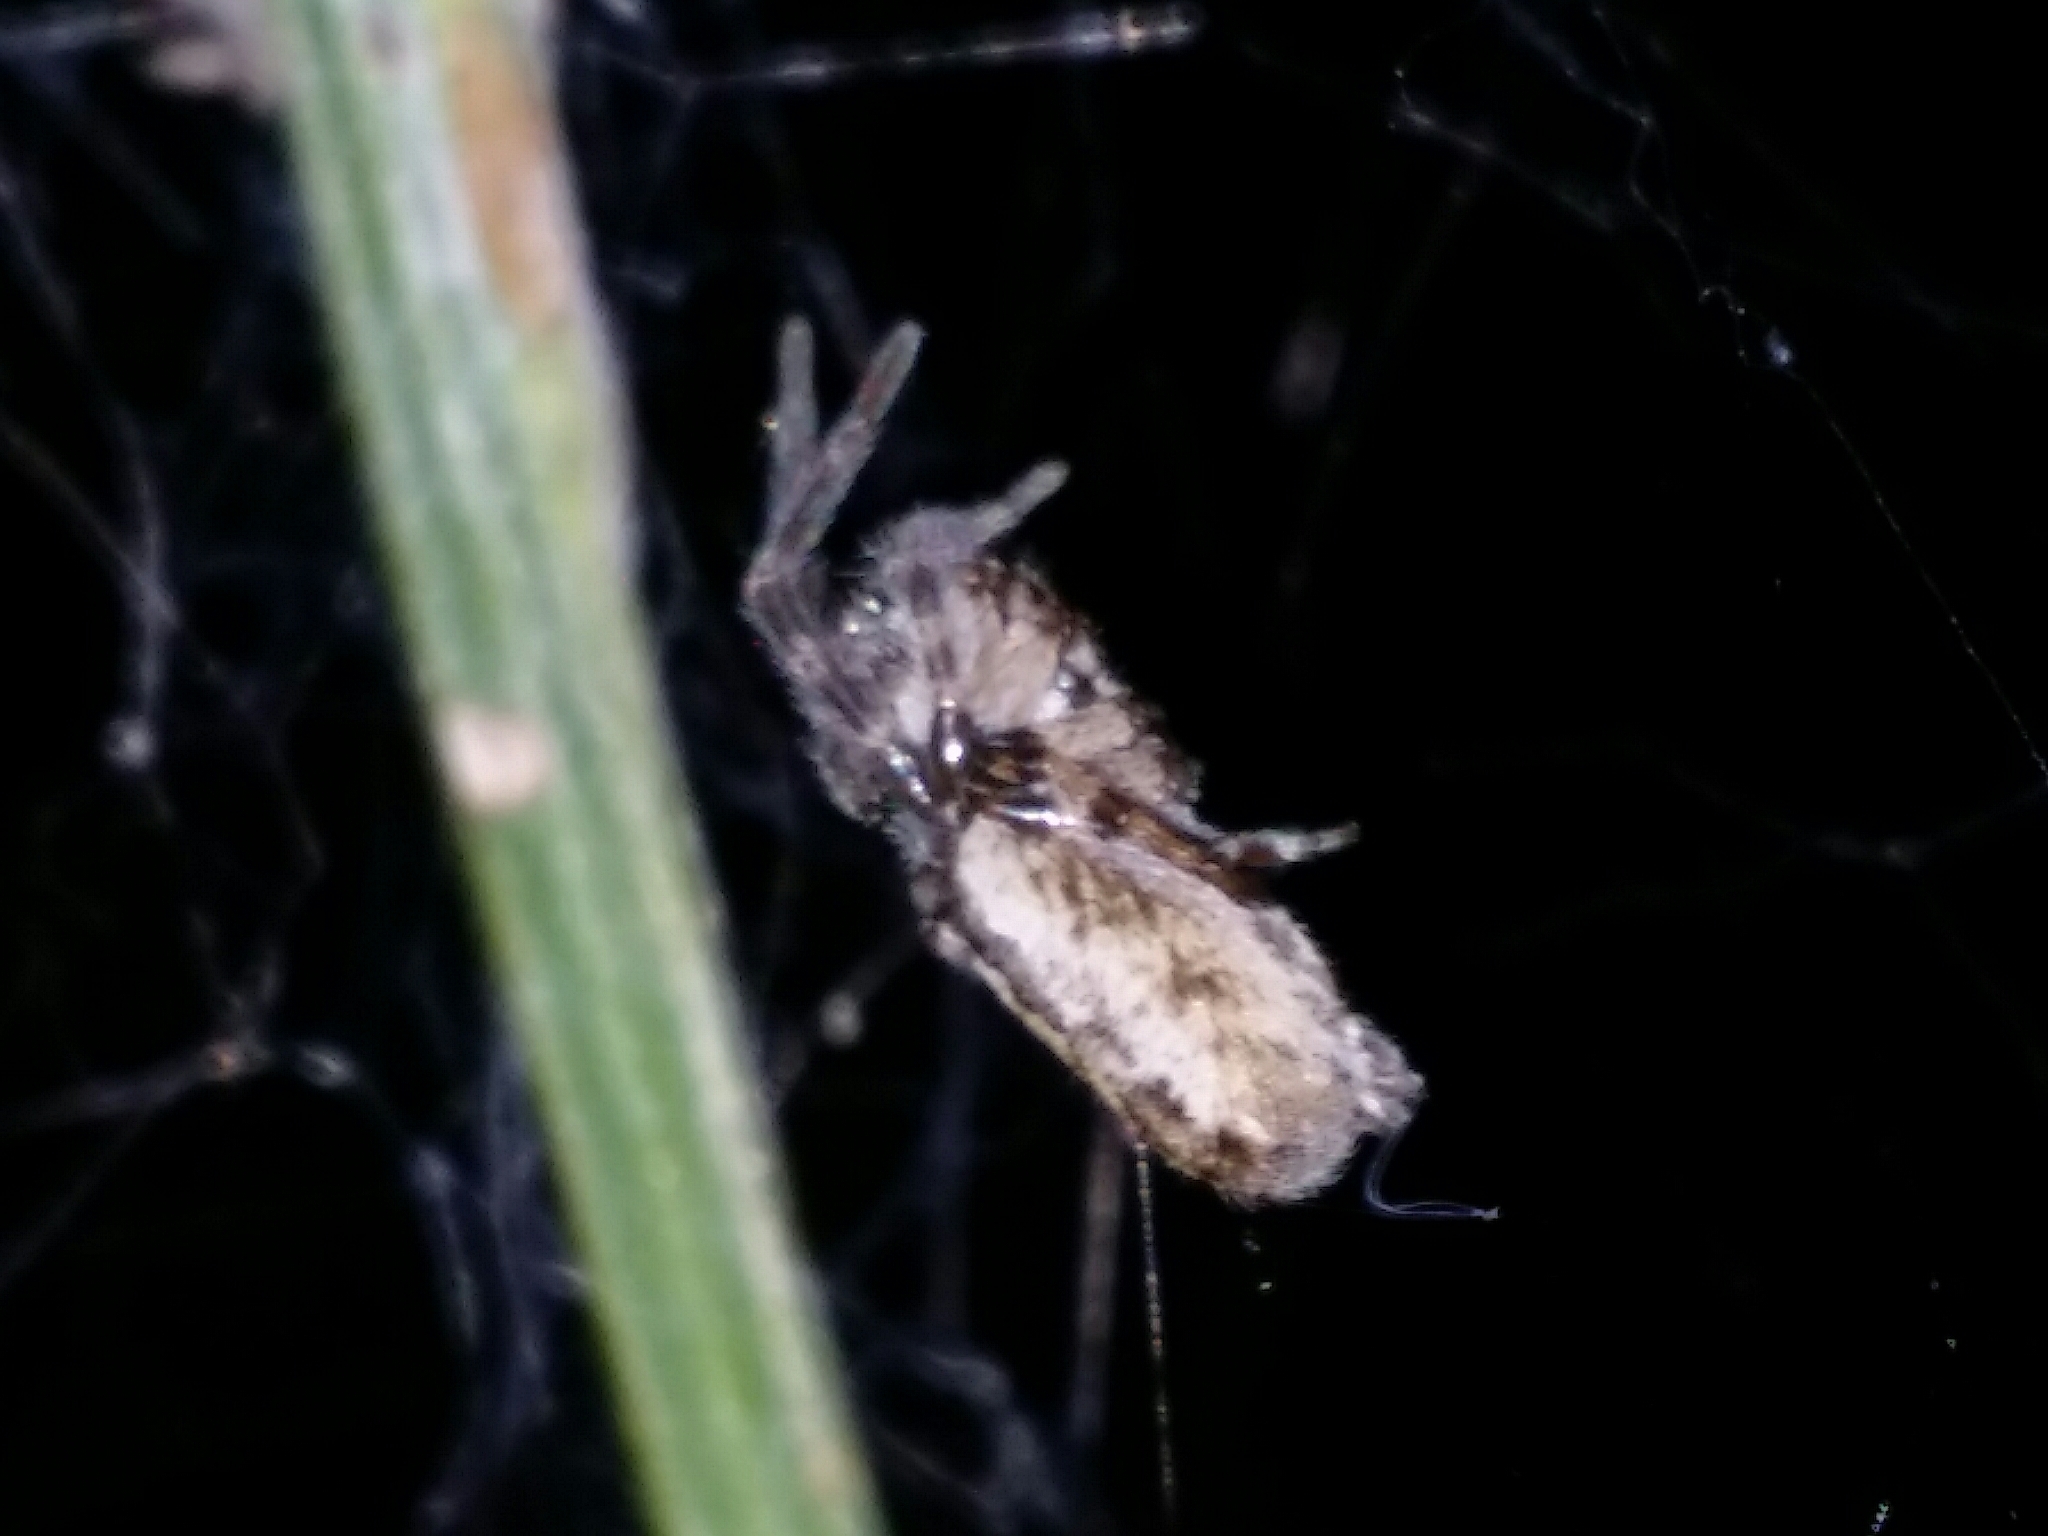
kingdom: Animalia
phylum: Arthropoda
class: Arachnida
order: Araneae
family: Desidae
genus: Phryganoporus
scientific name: Phryganoporus nigrinus
